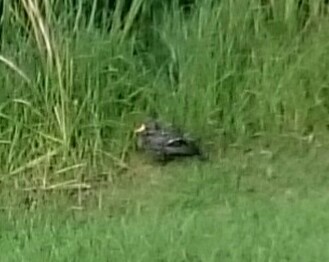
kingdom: Animalia
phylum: Chordata
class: Aves
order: Anseriformes
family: Anatidae
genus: Anas
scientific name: Anas undulata
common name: Yellow-billed duck
